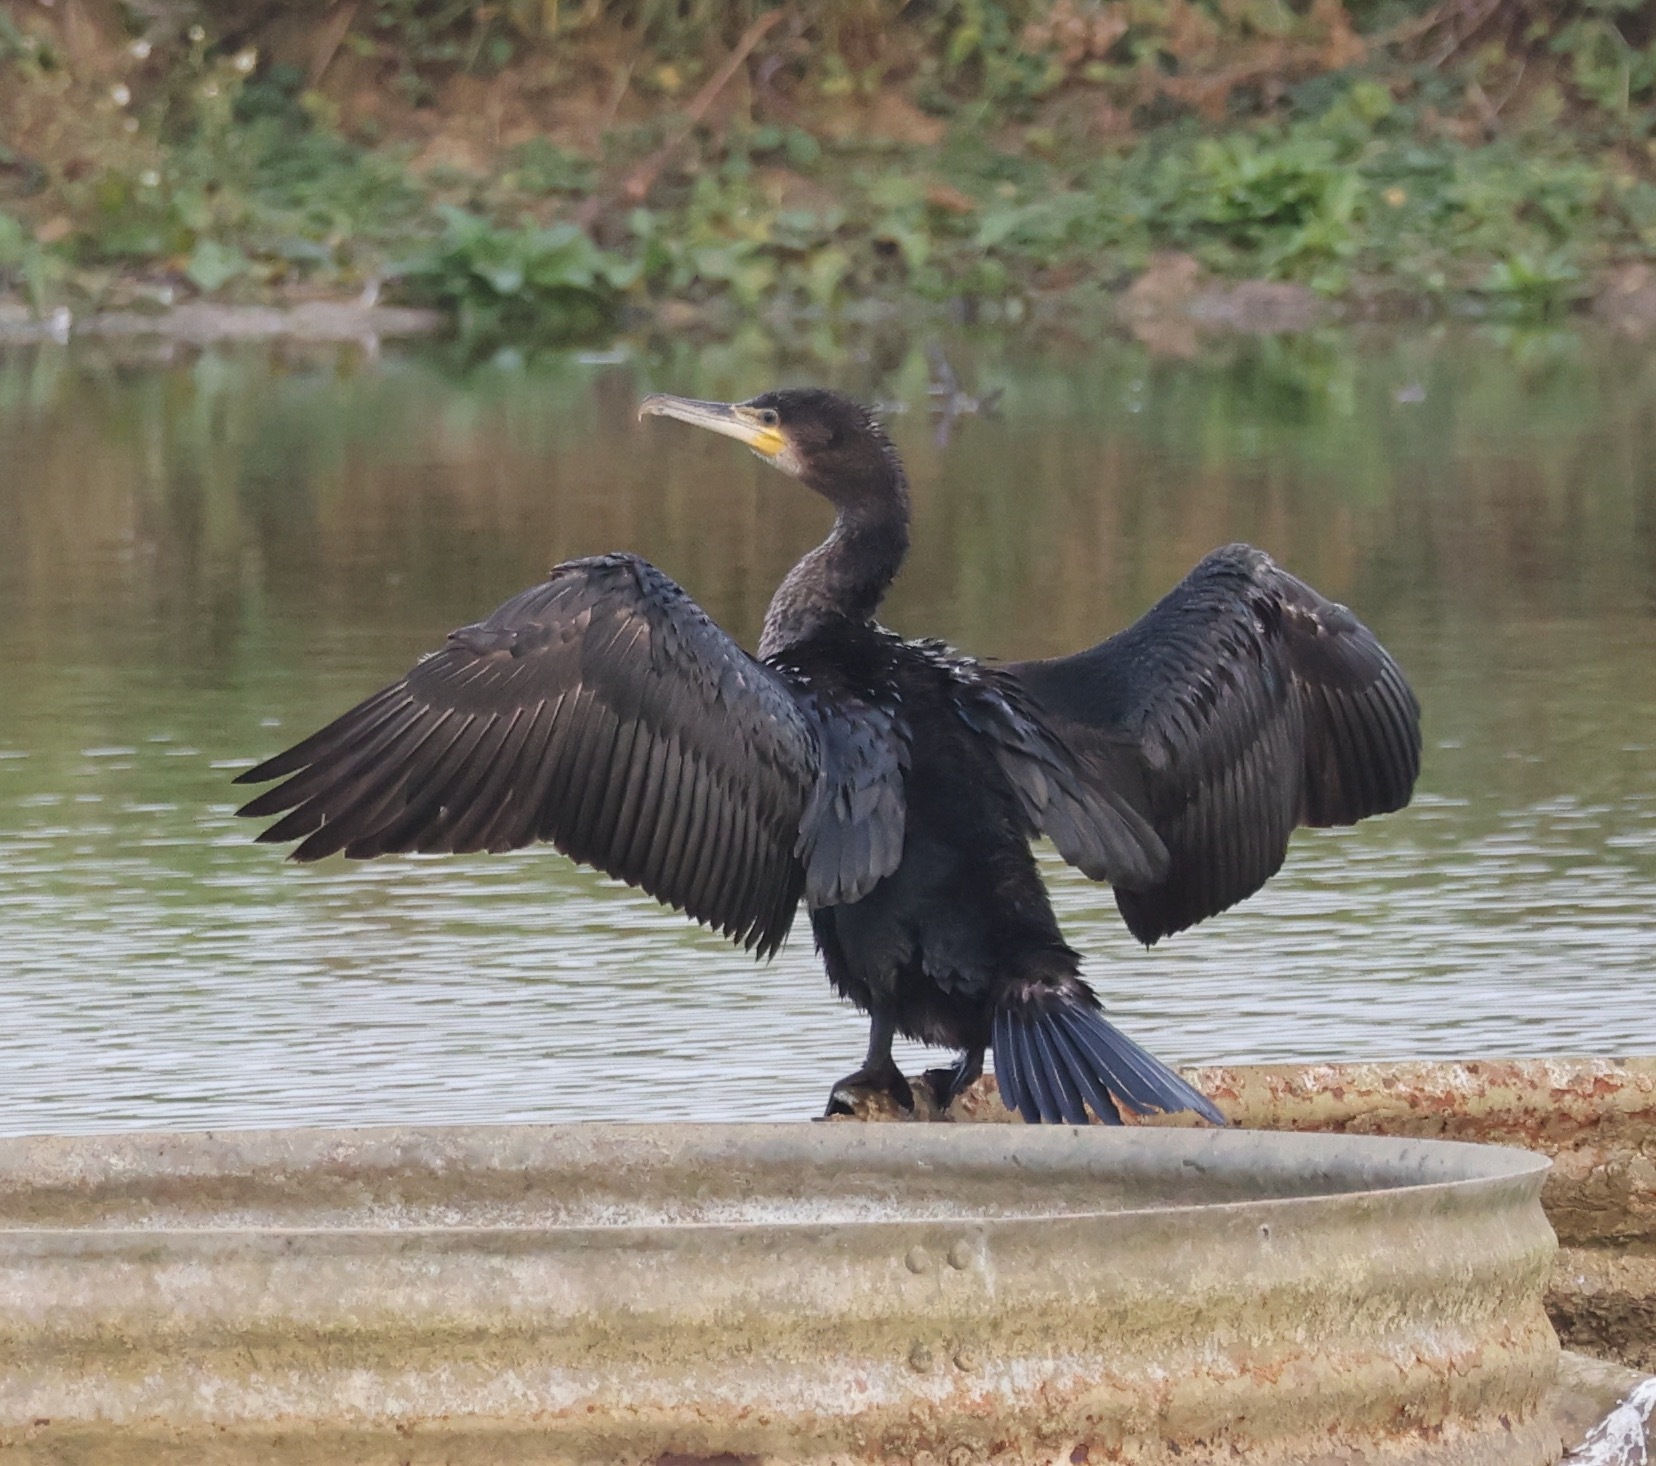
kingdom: Animalia
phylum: Chordata
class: Aves
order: Suliformes
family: Phalacrocoracidae
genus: Phalacrocorax
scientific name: Phalacrocorax carbo
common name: Great cormorant
